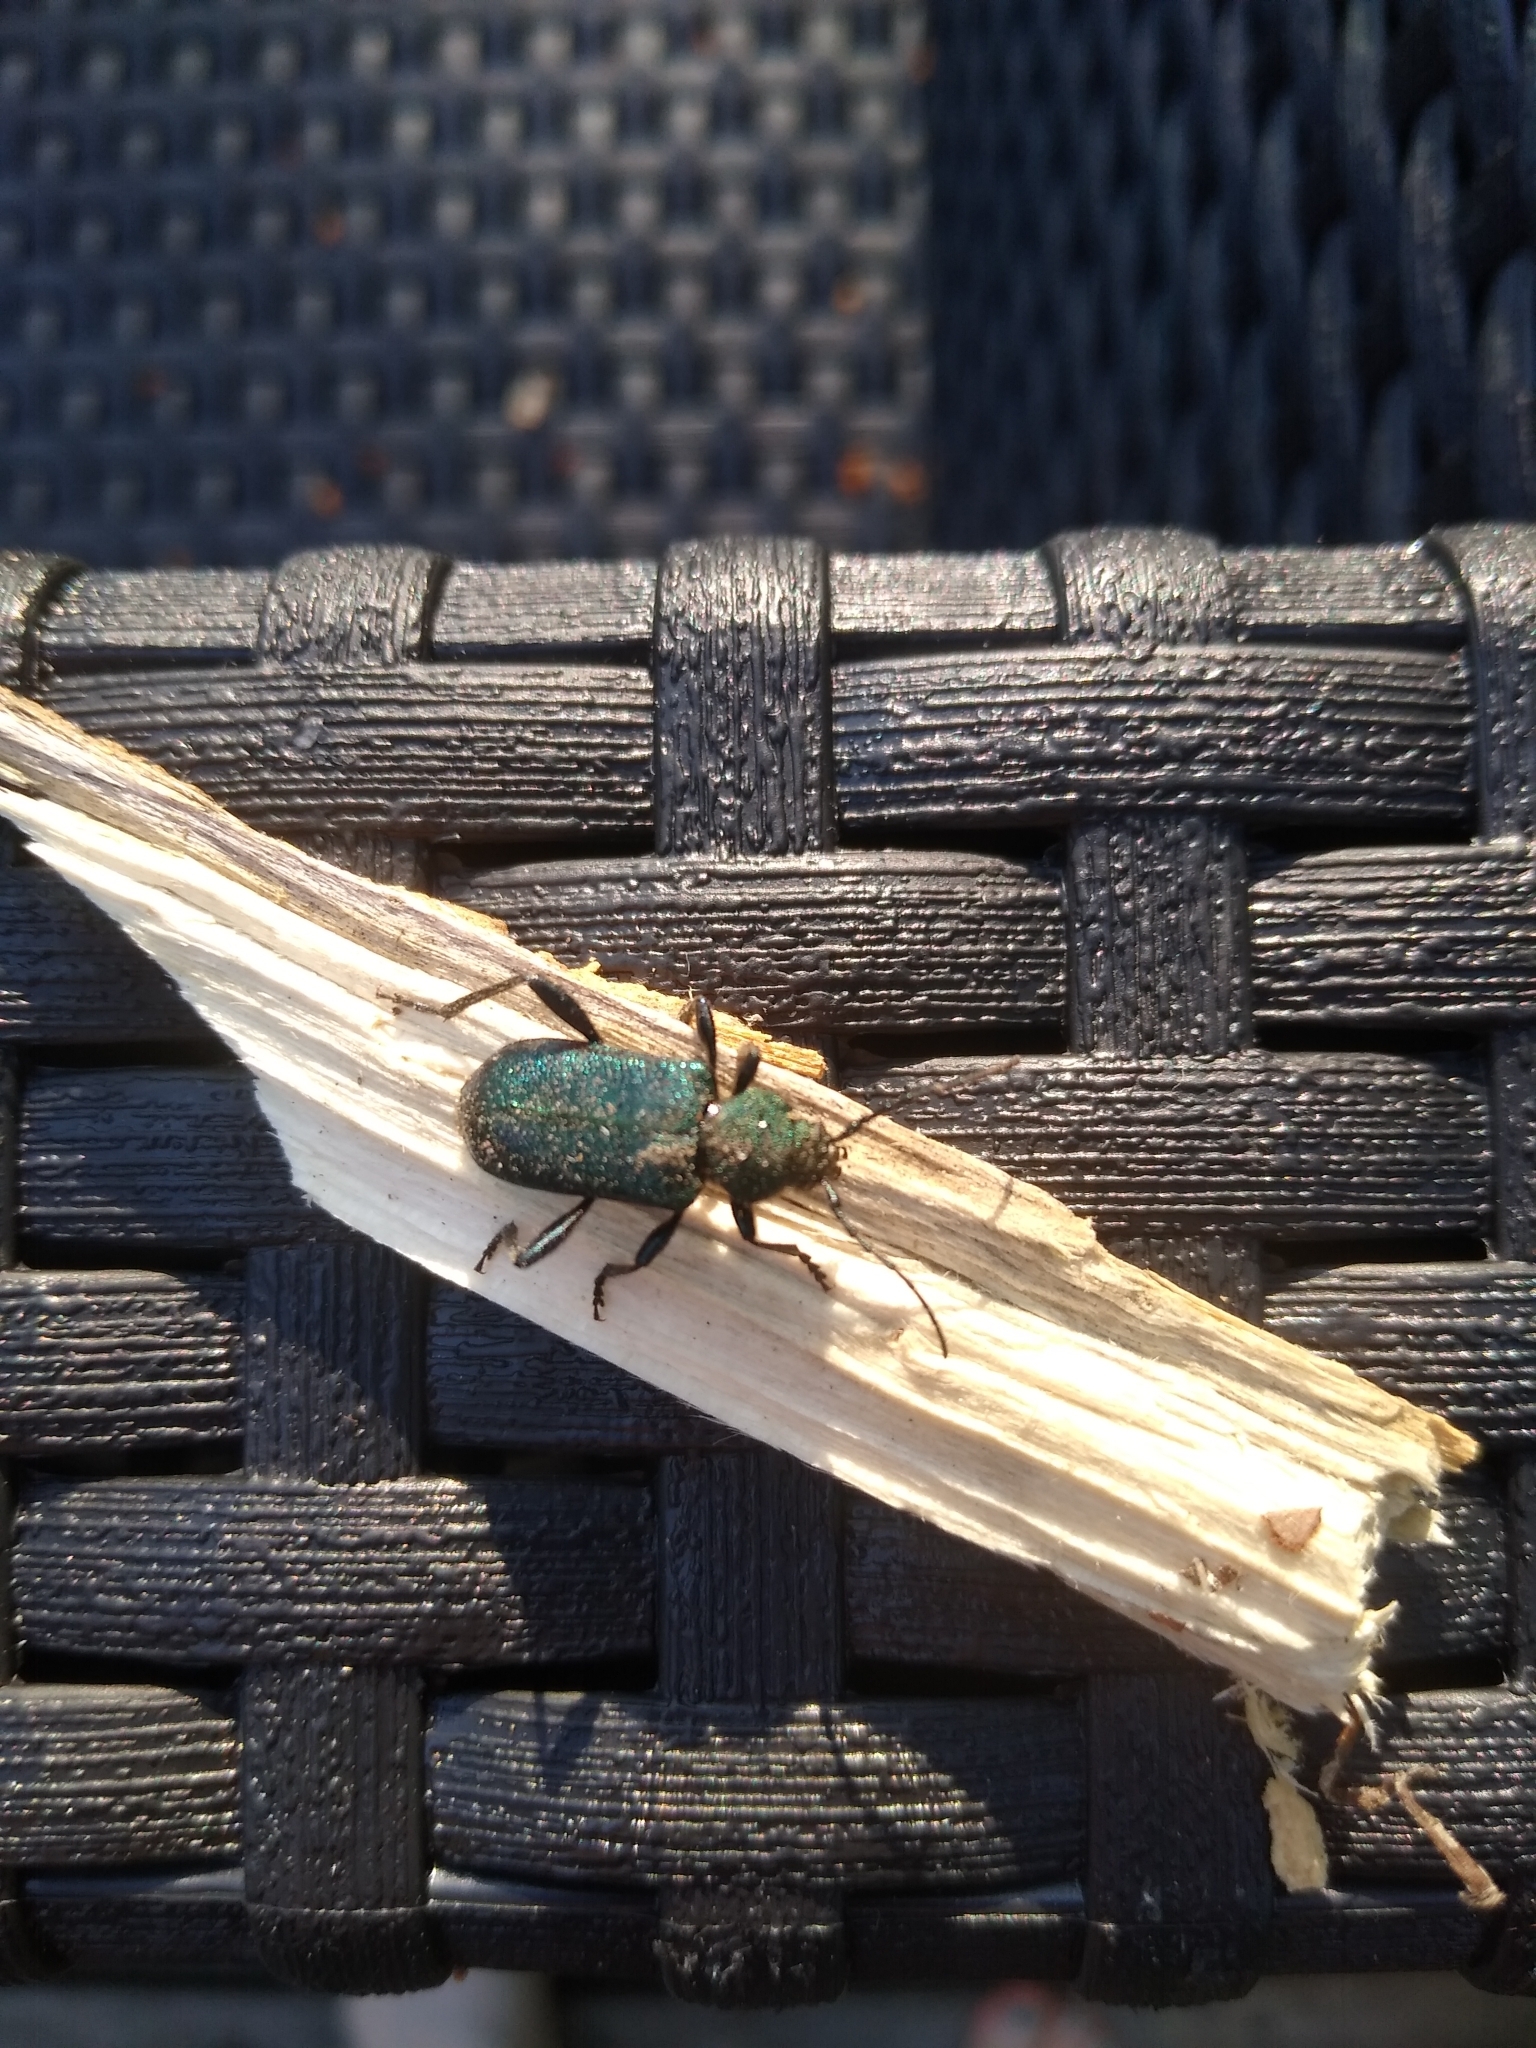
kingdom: Animalia
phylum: Arthropoda
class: Insecta
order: Coleoptera
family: Cerambycidae
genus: Callidium
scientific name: Callidium violaceum
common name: Violet tanbark beetle
